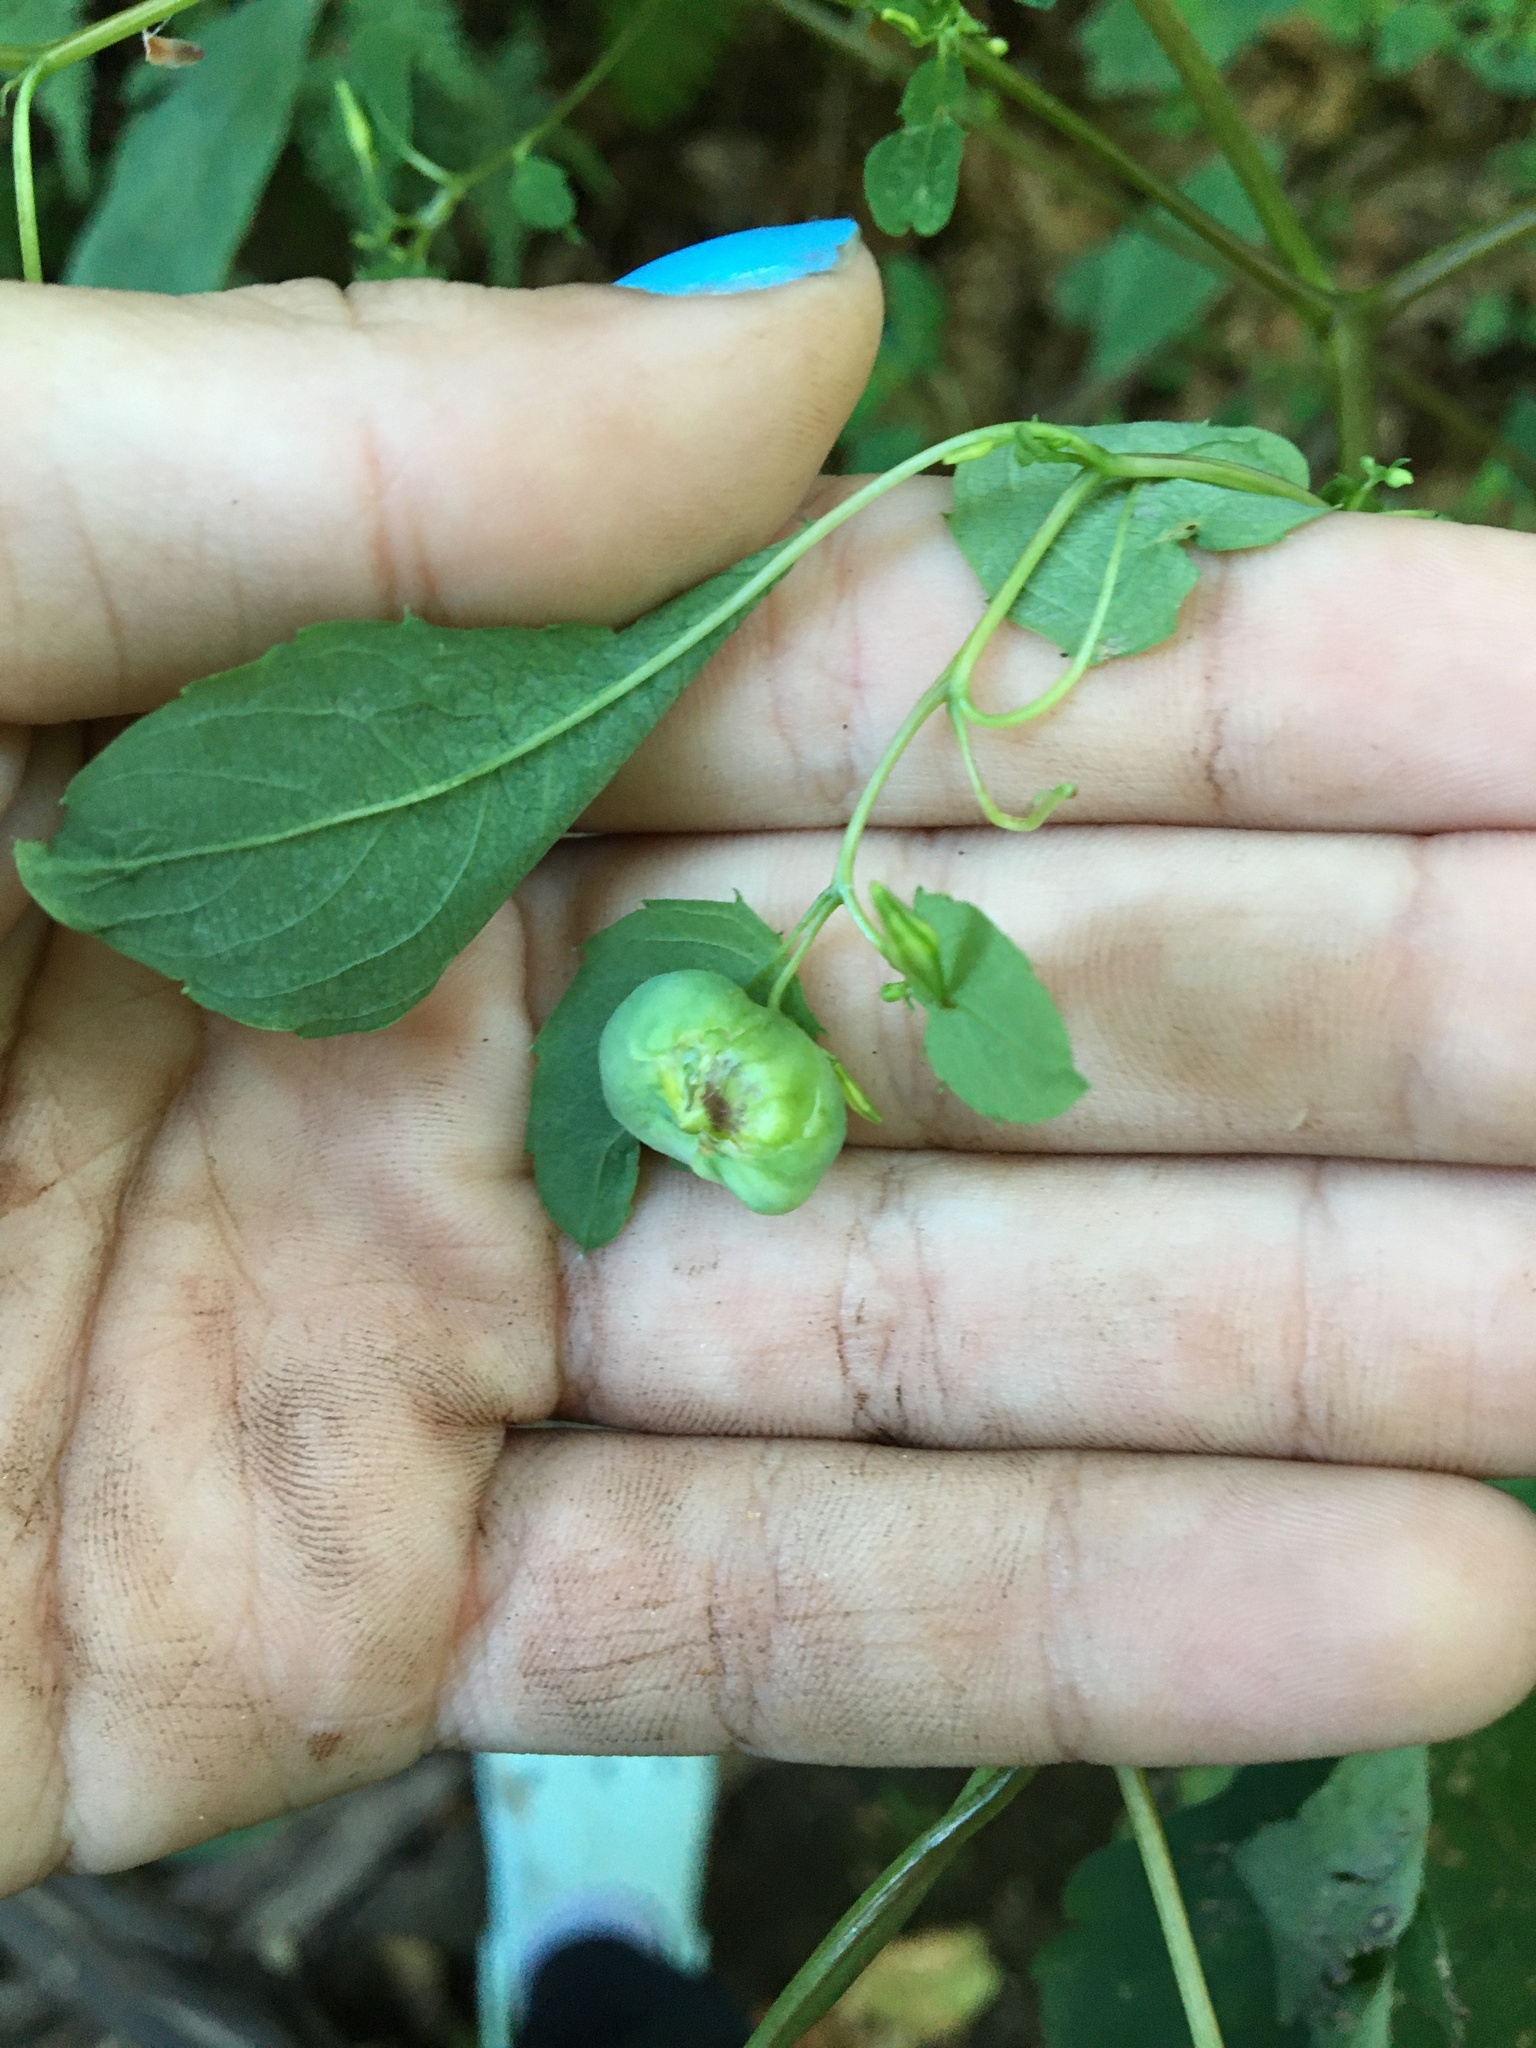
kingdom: Animalia
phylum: Arthropoda
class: Insecta
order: Diptera
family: Cecidomyiidae
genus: Schizomyia
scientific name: Schizomyia impatientis
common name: Jewelweed gall midge
